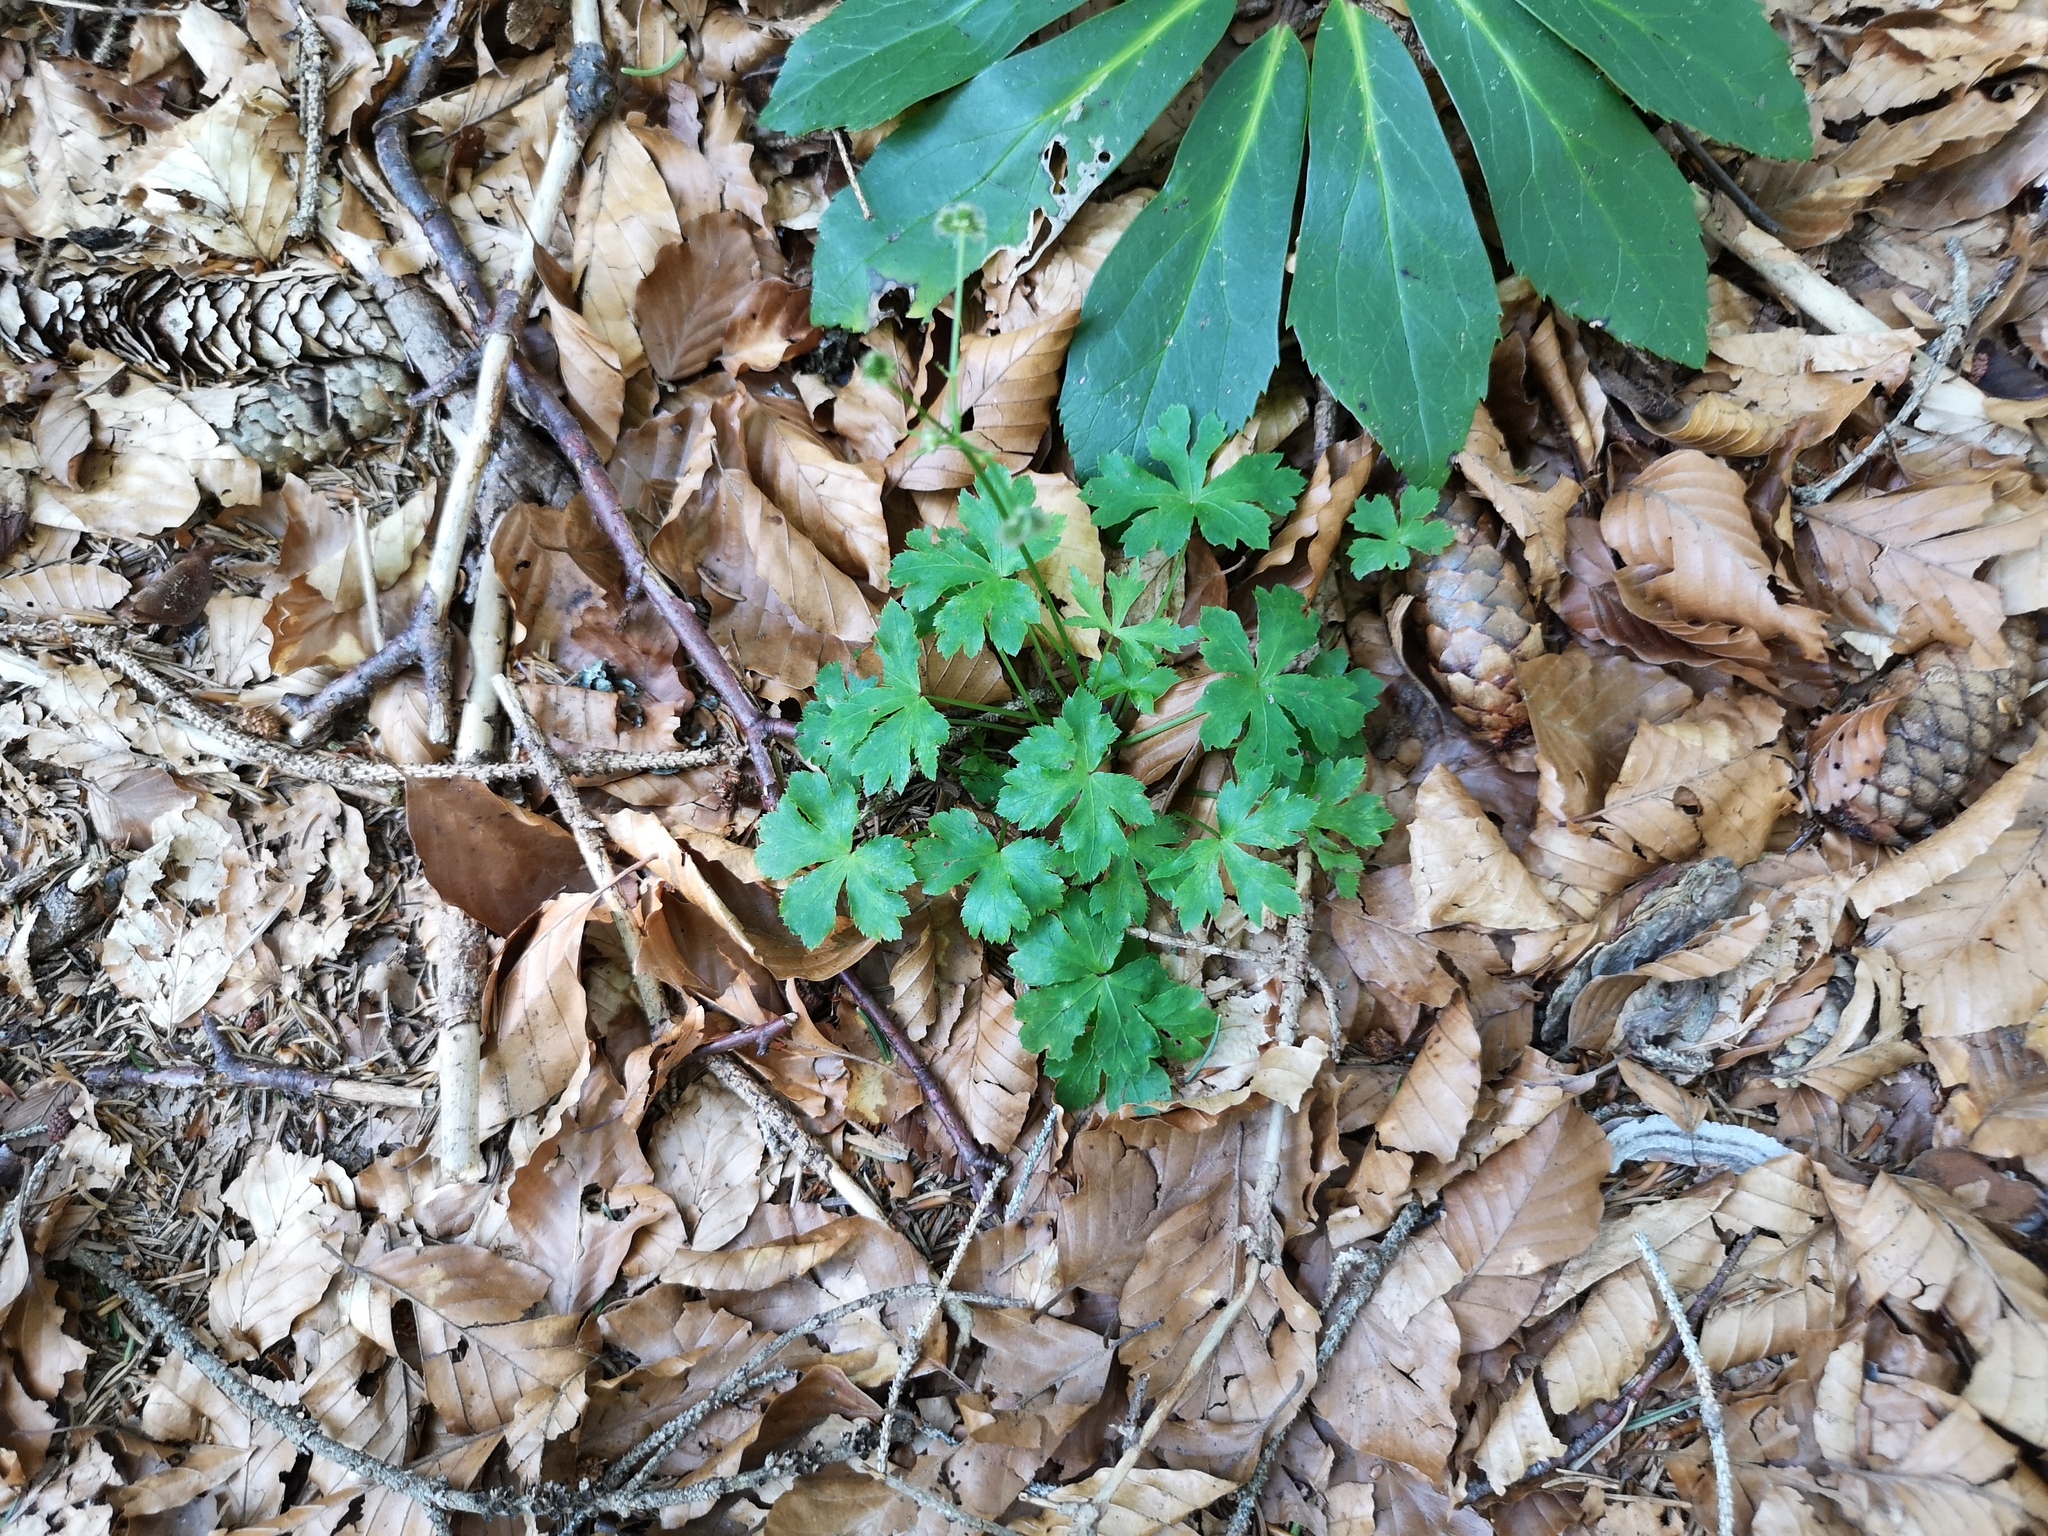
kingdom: Plantae
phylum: Tracheophyta
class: Magnoliopsida
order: Apiales
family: Apiaceae
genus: Sanicula
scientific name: Sanicula europaea
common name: Sanicle
